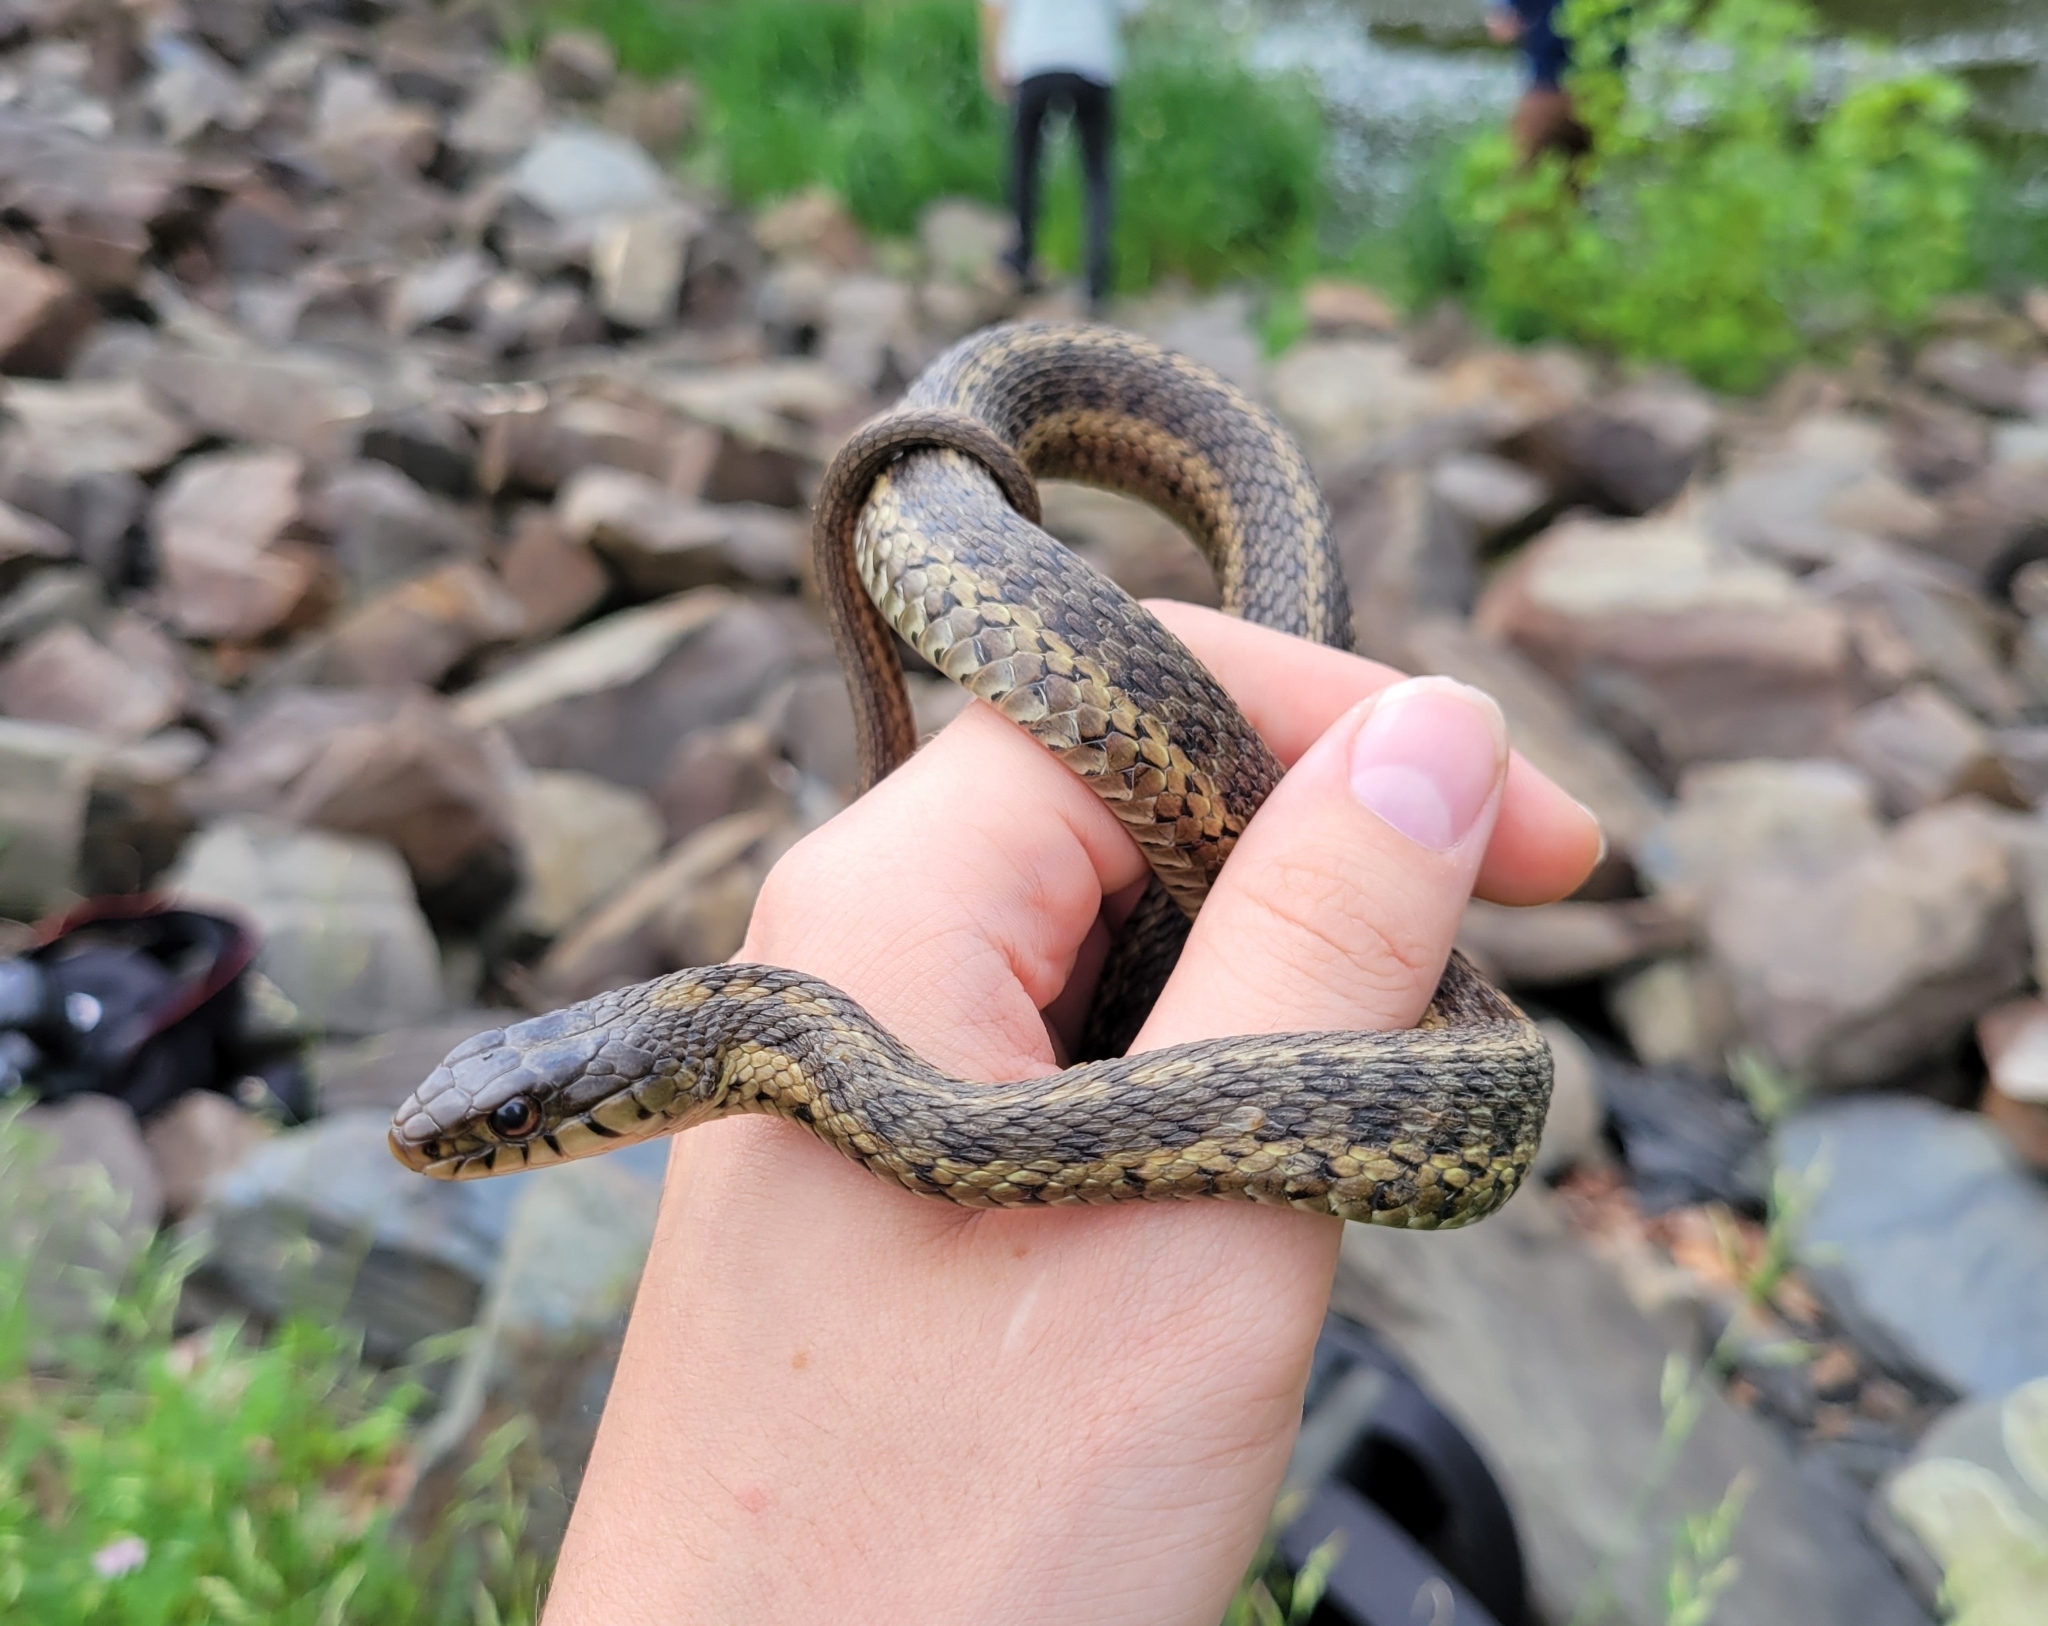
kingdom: Animalia
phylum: Chordata
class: Squamata
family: Colubridae
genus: Thamnophis
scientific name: Thamnophis sirtalis
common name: Common garter snake
